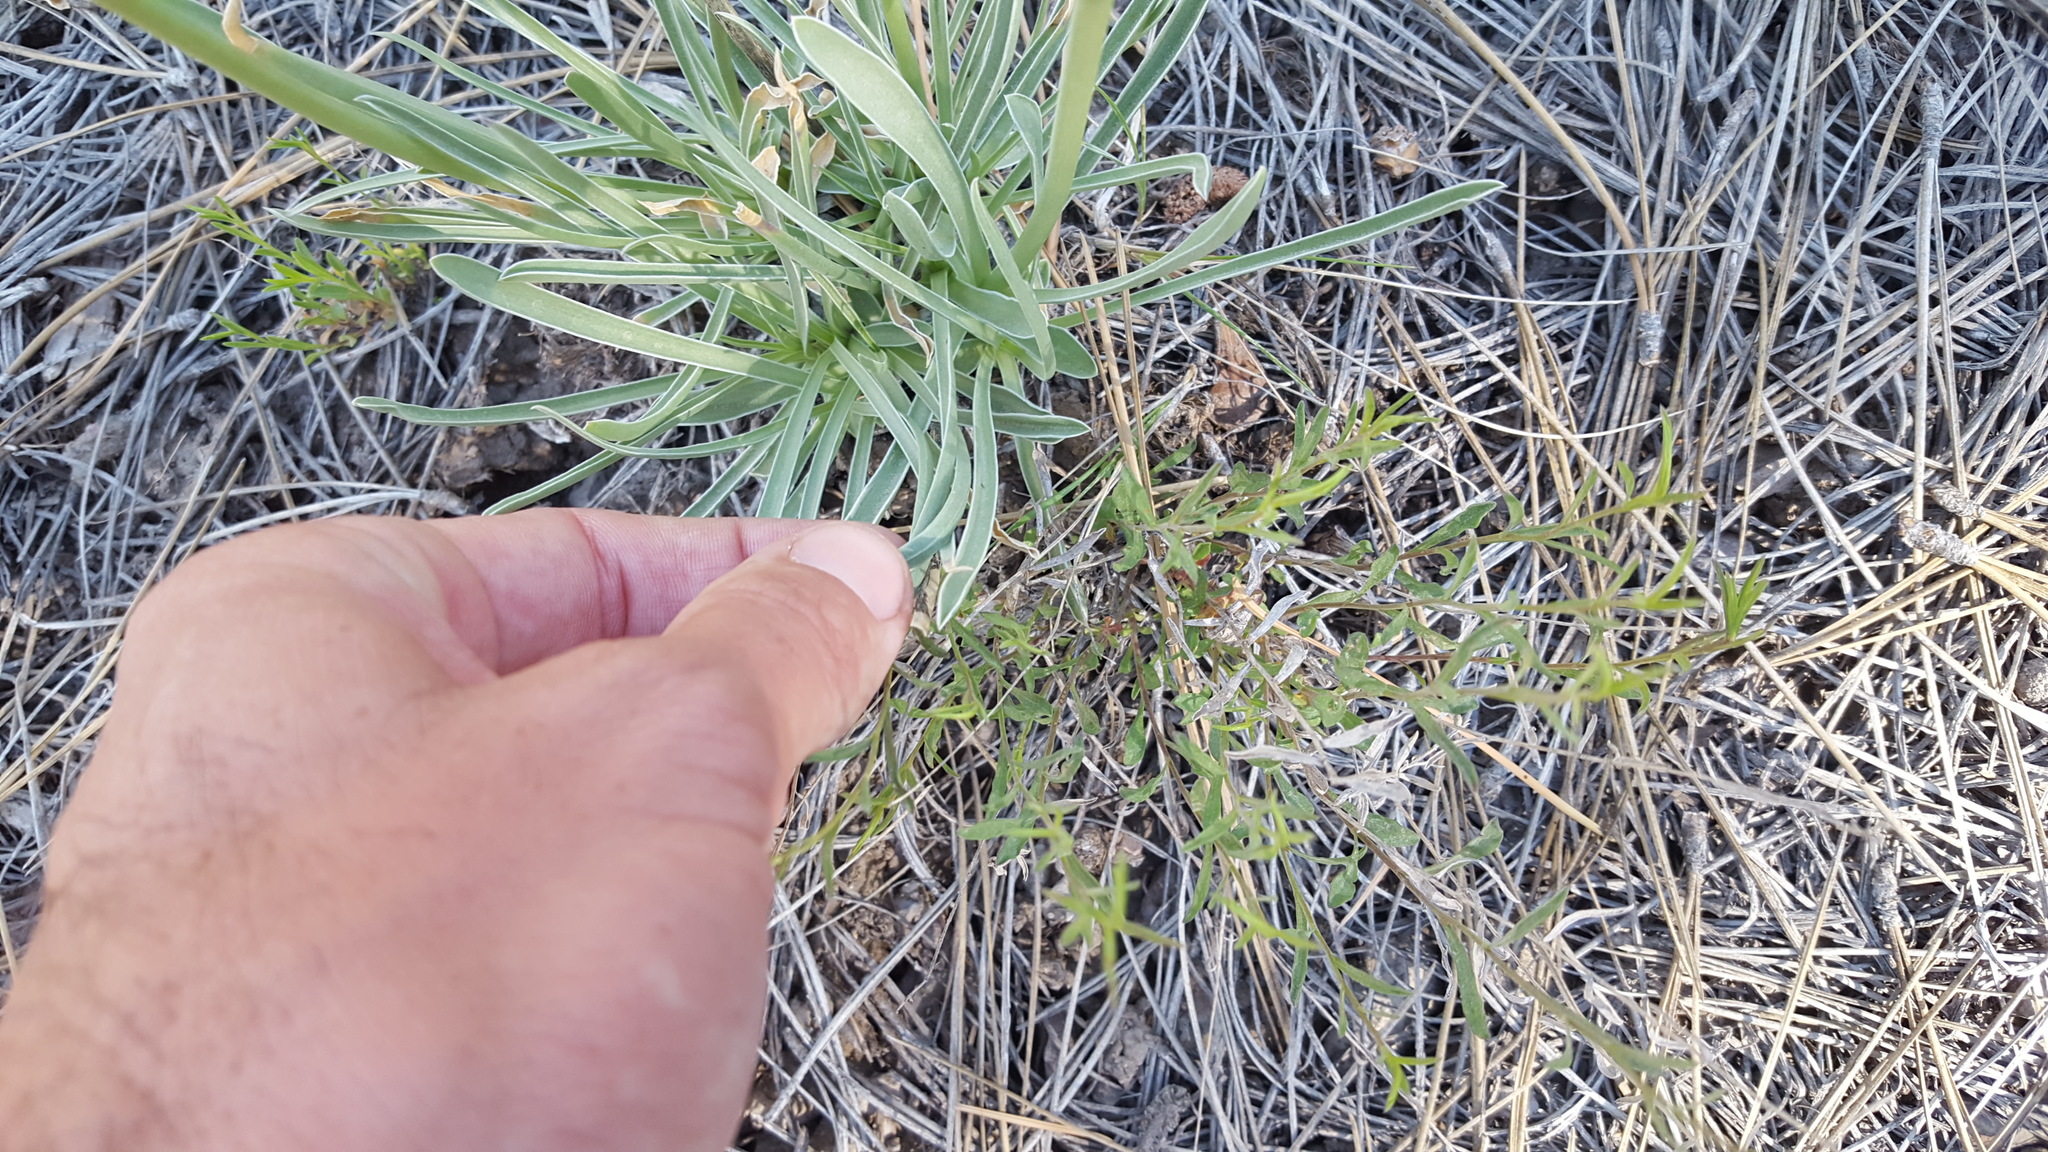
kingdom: Plantae
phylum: Tracheophyta
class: Magnoliopsida
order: Gentianales
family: Gentianaceae
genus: Frasera
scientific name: Frasera neglecta
